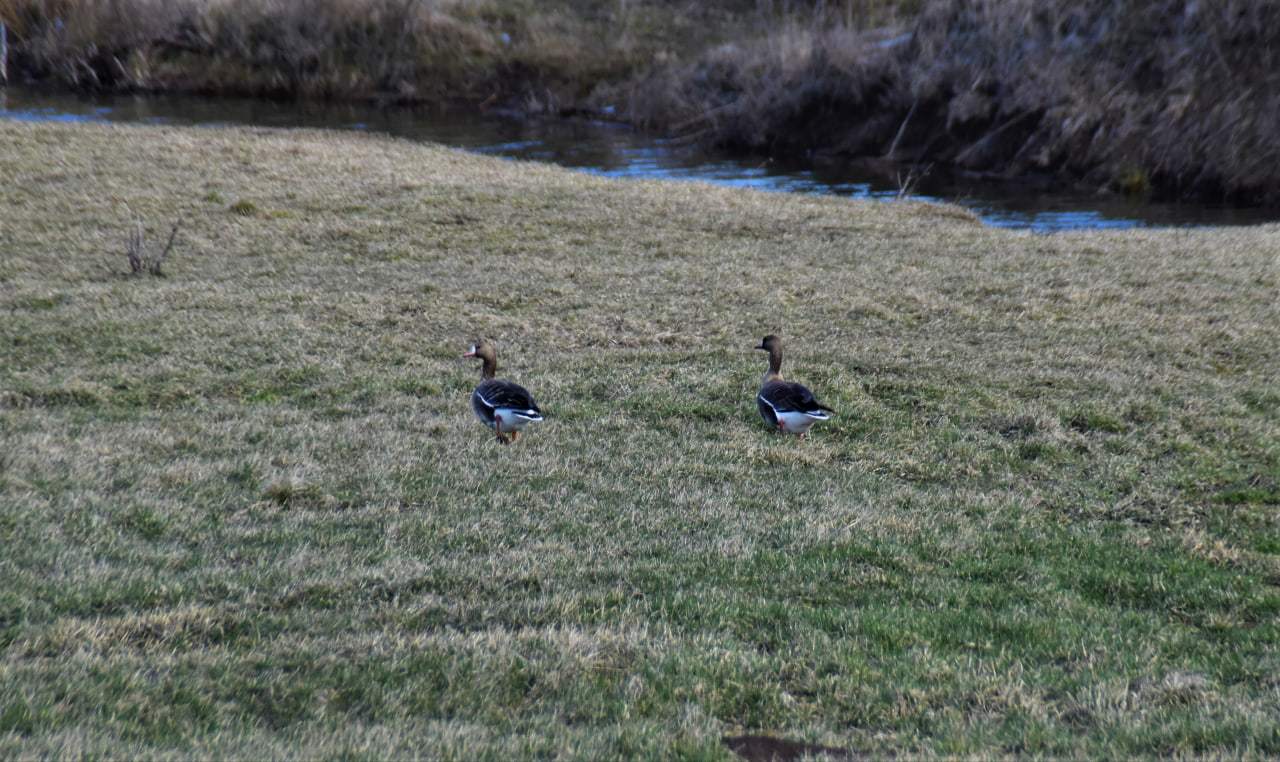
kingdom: Animalia
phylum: Chordata
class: Aves
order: Anseriformes
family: Anatidae
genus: Anser
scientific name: Anser albifrons
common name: Greater white-fronted goose
